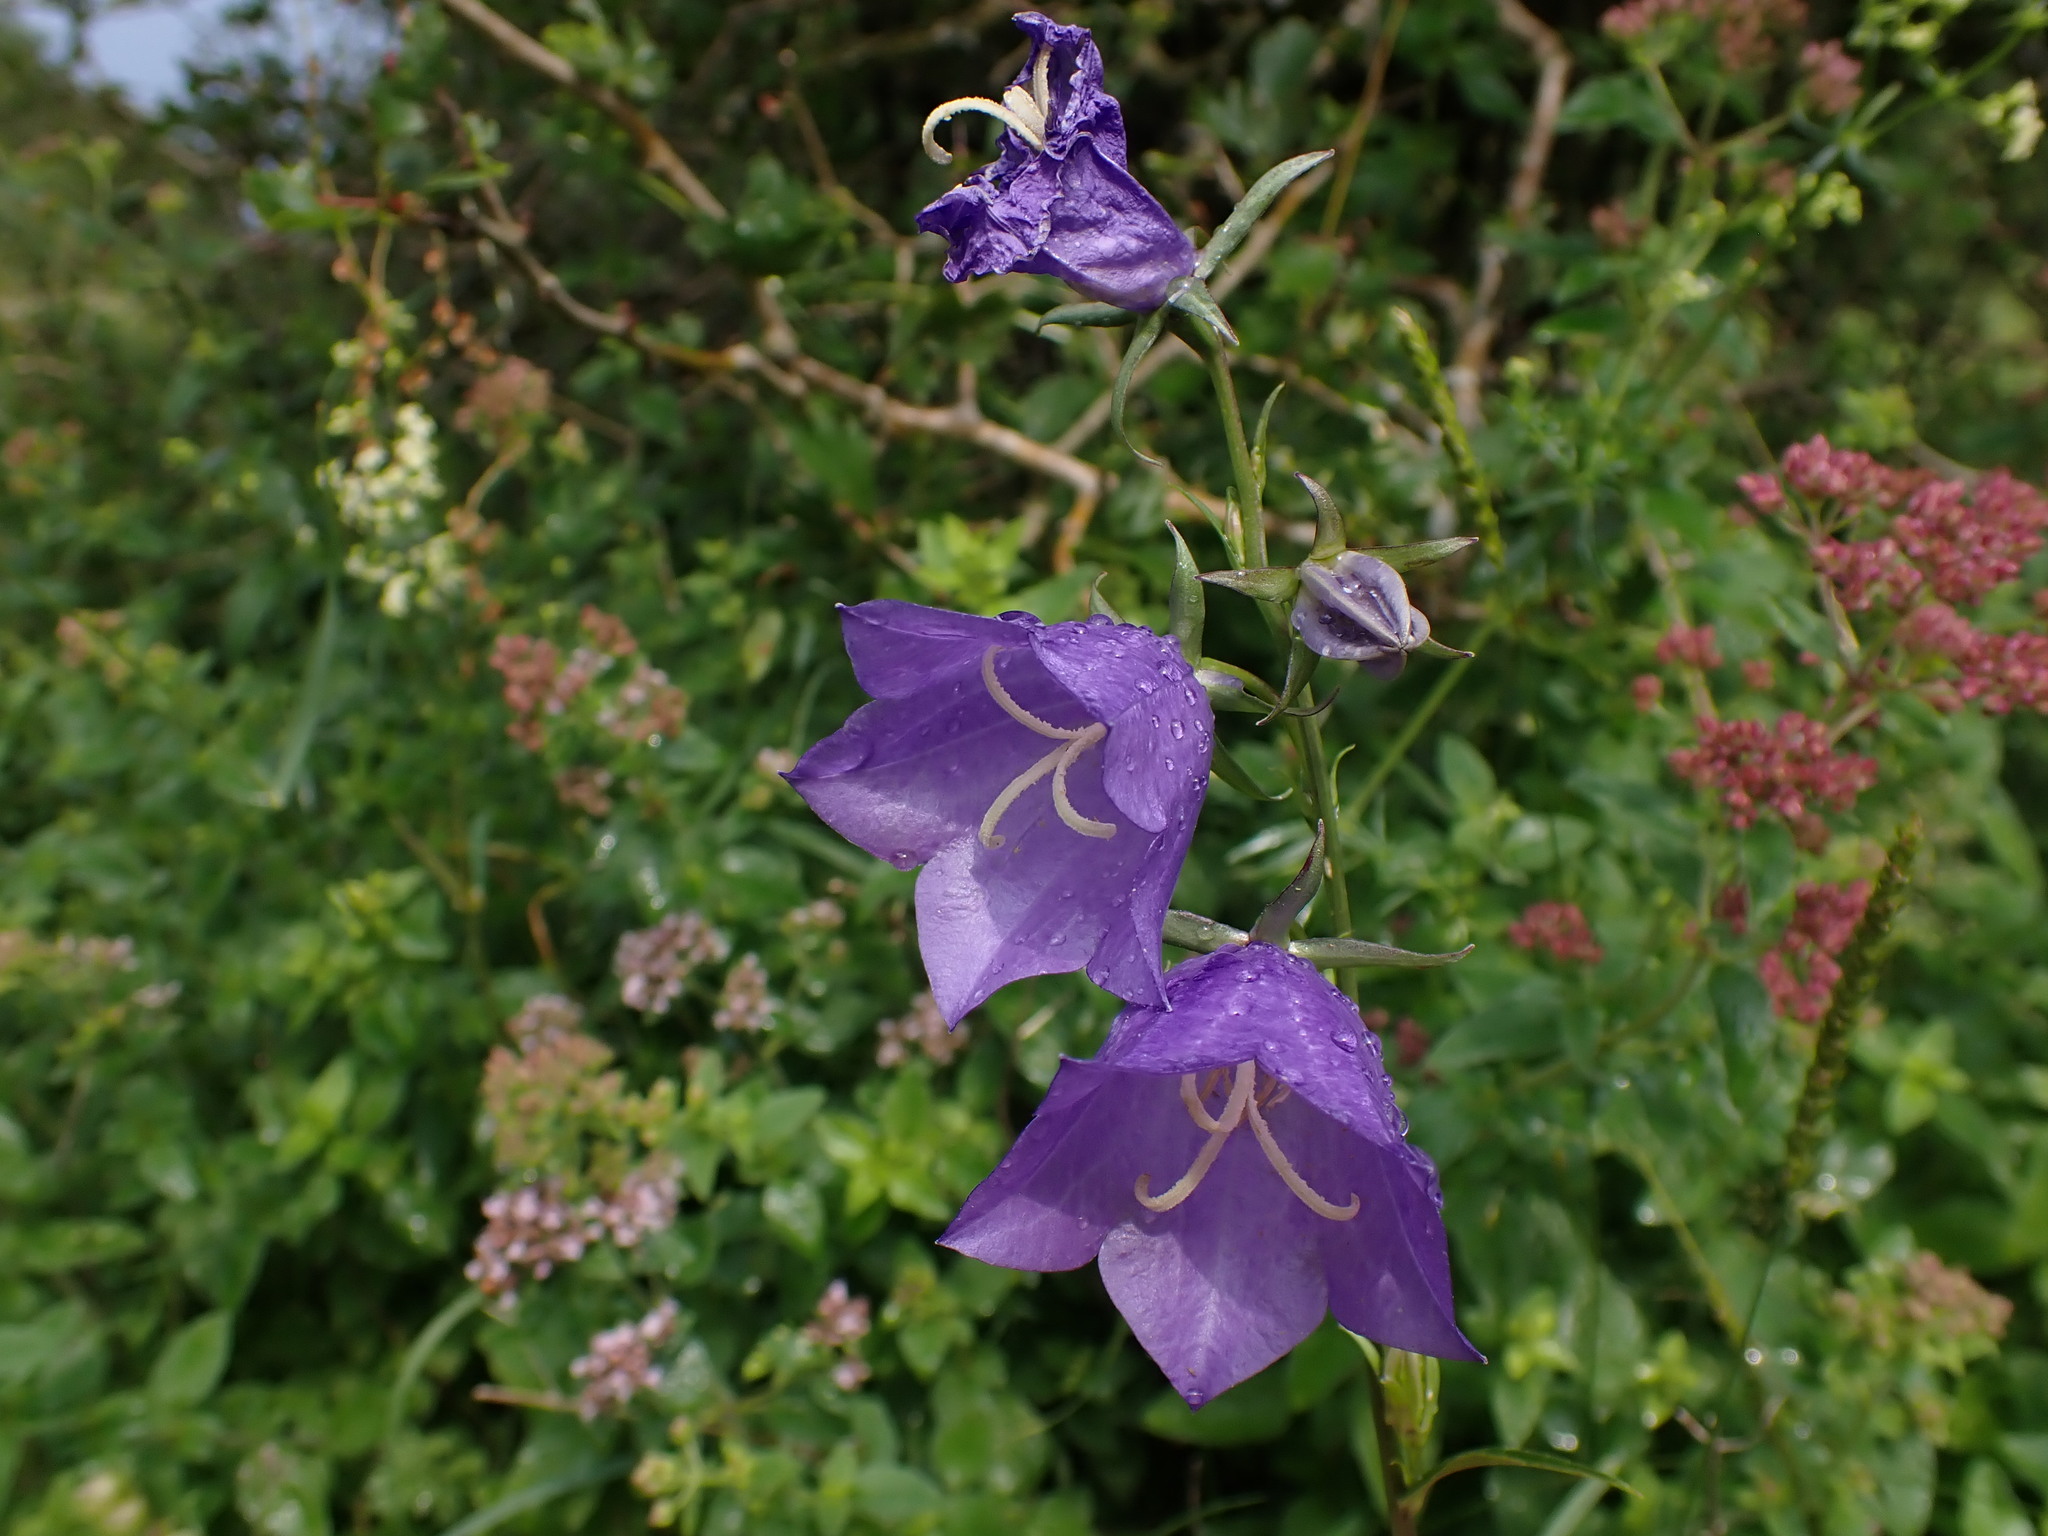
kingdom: Plantae
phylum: Tracheophyta
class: Magnoliopsida
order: Asterales
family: Campanulaceae
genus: Campanula
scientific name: Campanula persicifolia
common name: Peach-leaved bellflower
